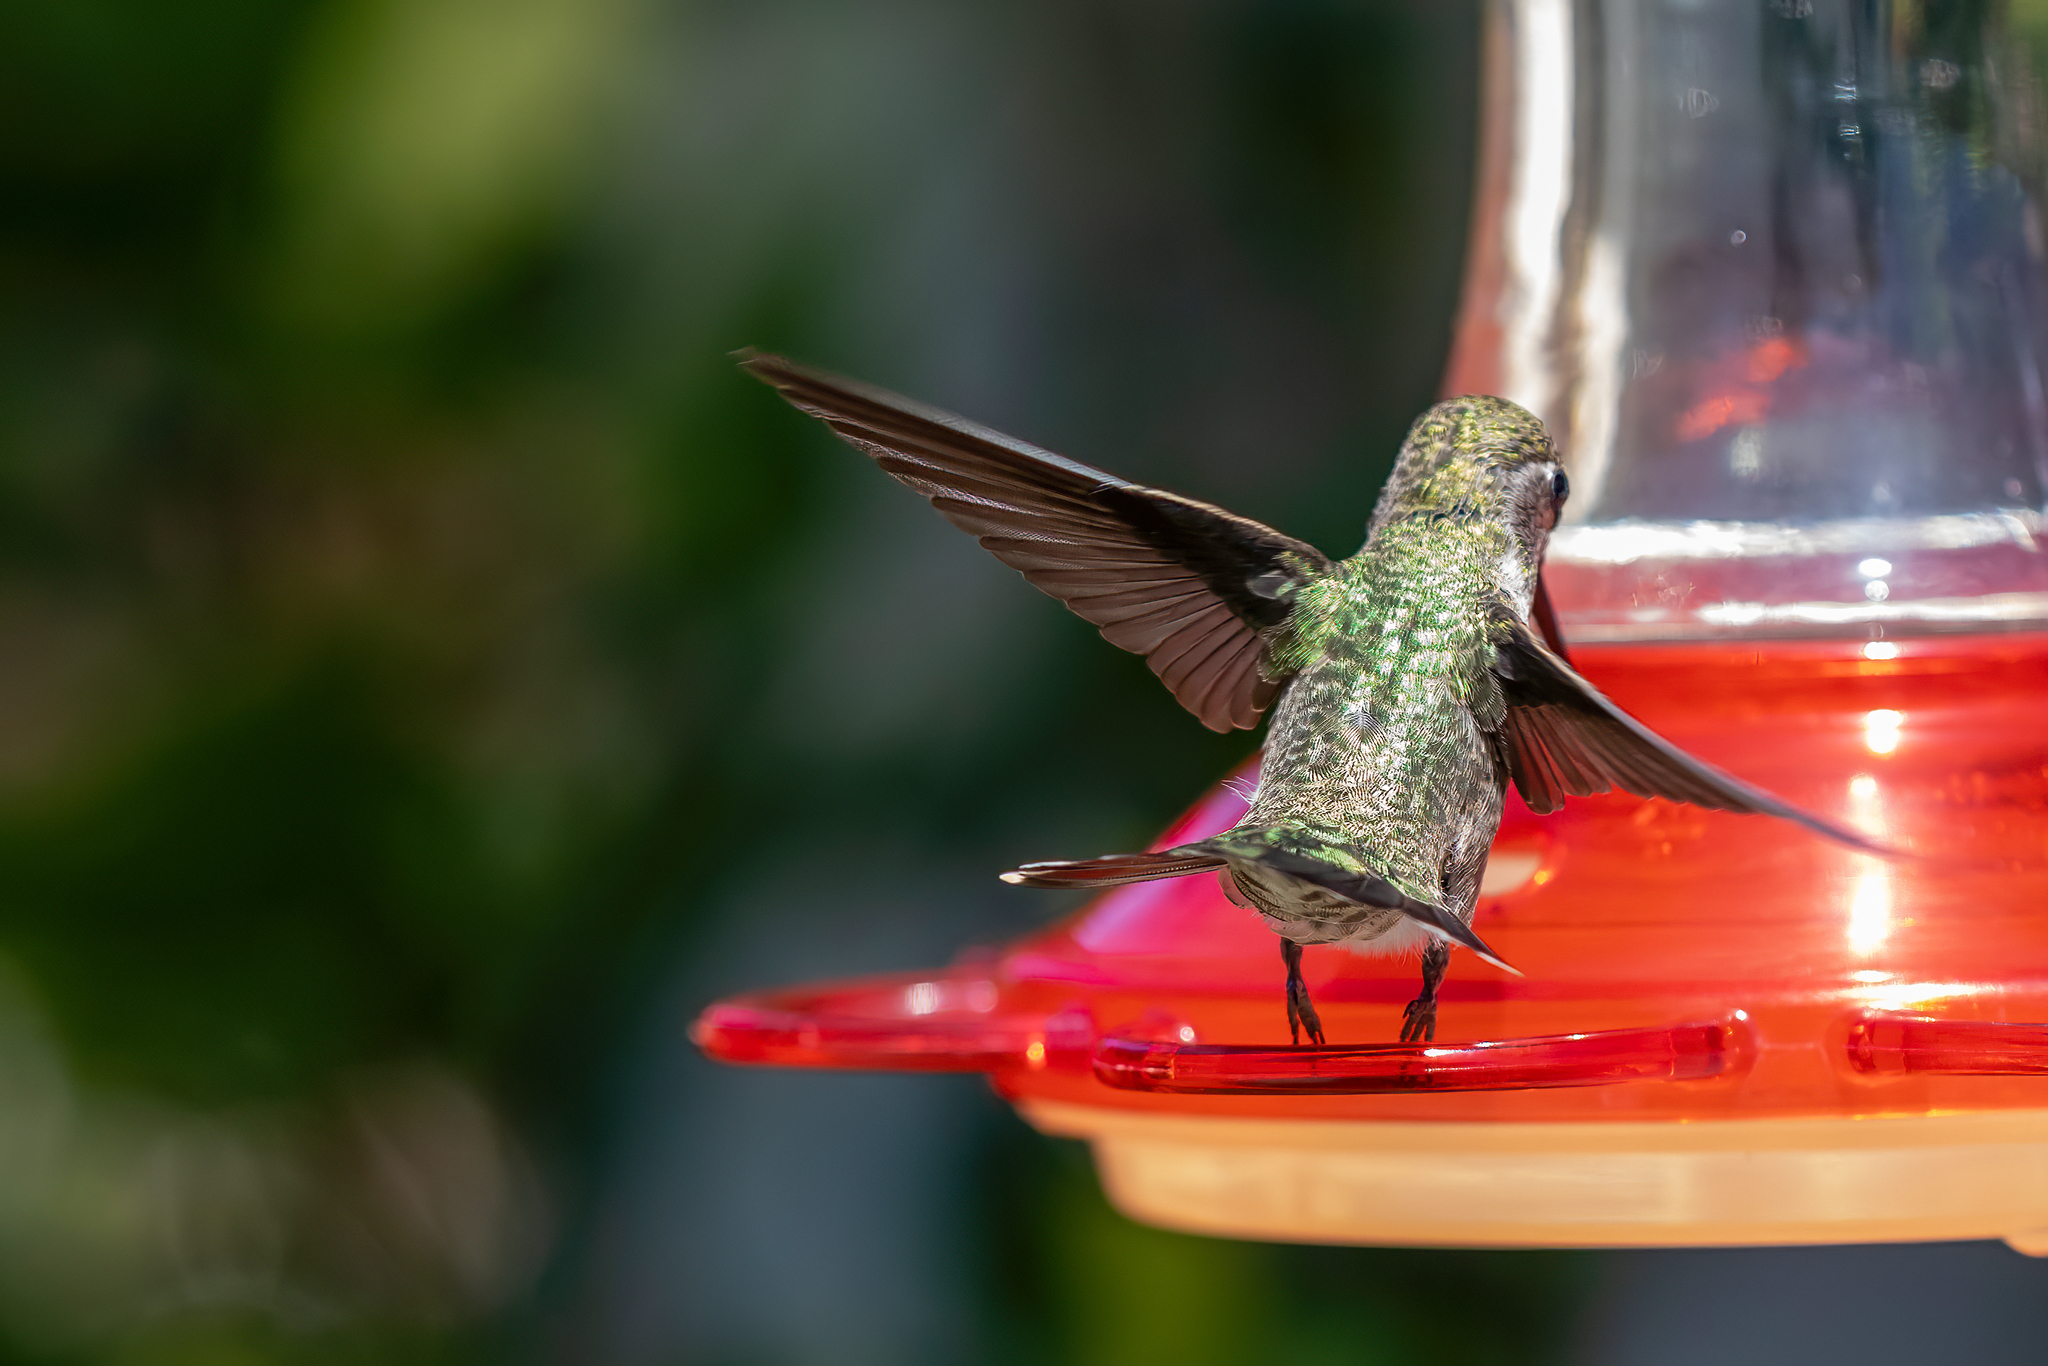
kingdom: Animalia
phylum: Chordata
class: Aves
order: Apodiformes
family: Trochilidae
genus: Calypte
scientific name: Calypte anna
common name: Anna's hummingbird
